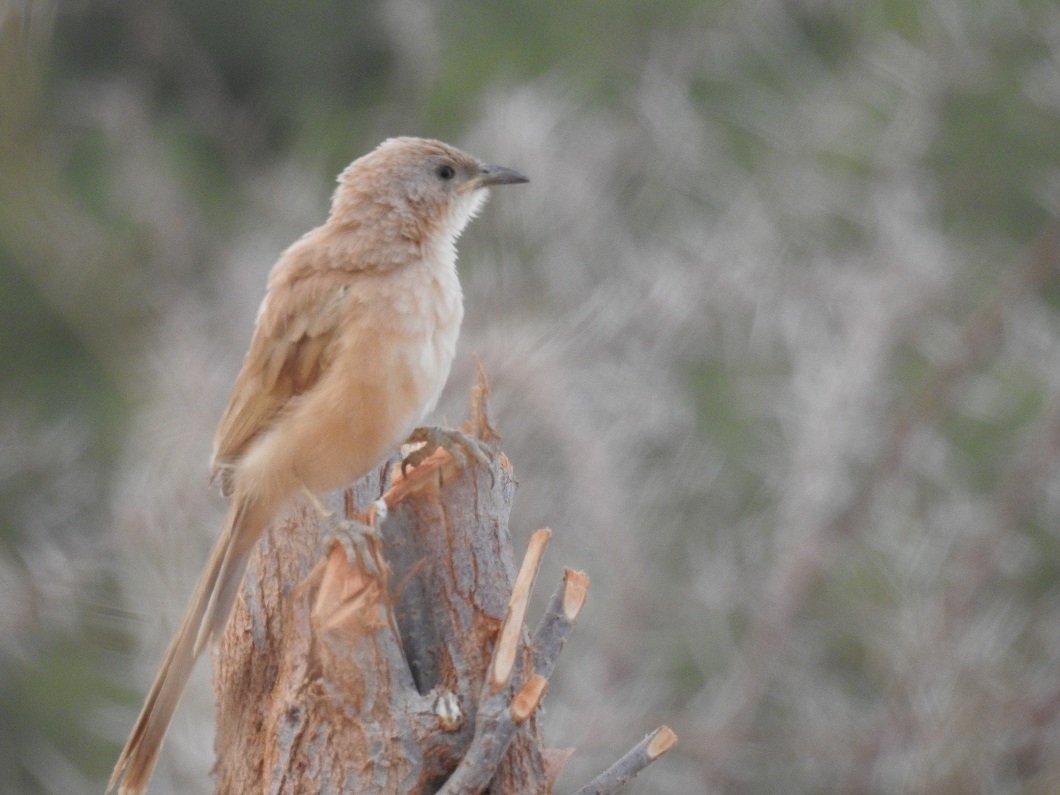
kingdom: Animalia
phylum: Chordata
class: Aves
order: Passeriformes
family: Leiothrichidae
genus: Turdoides
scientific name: Turdoides fulva
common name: Fulvous babbler
